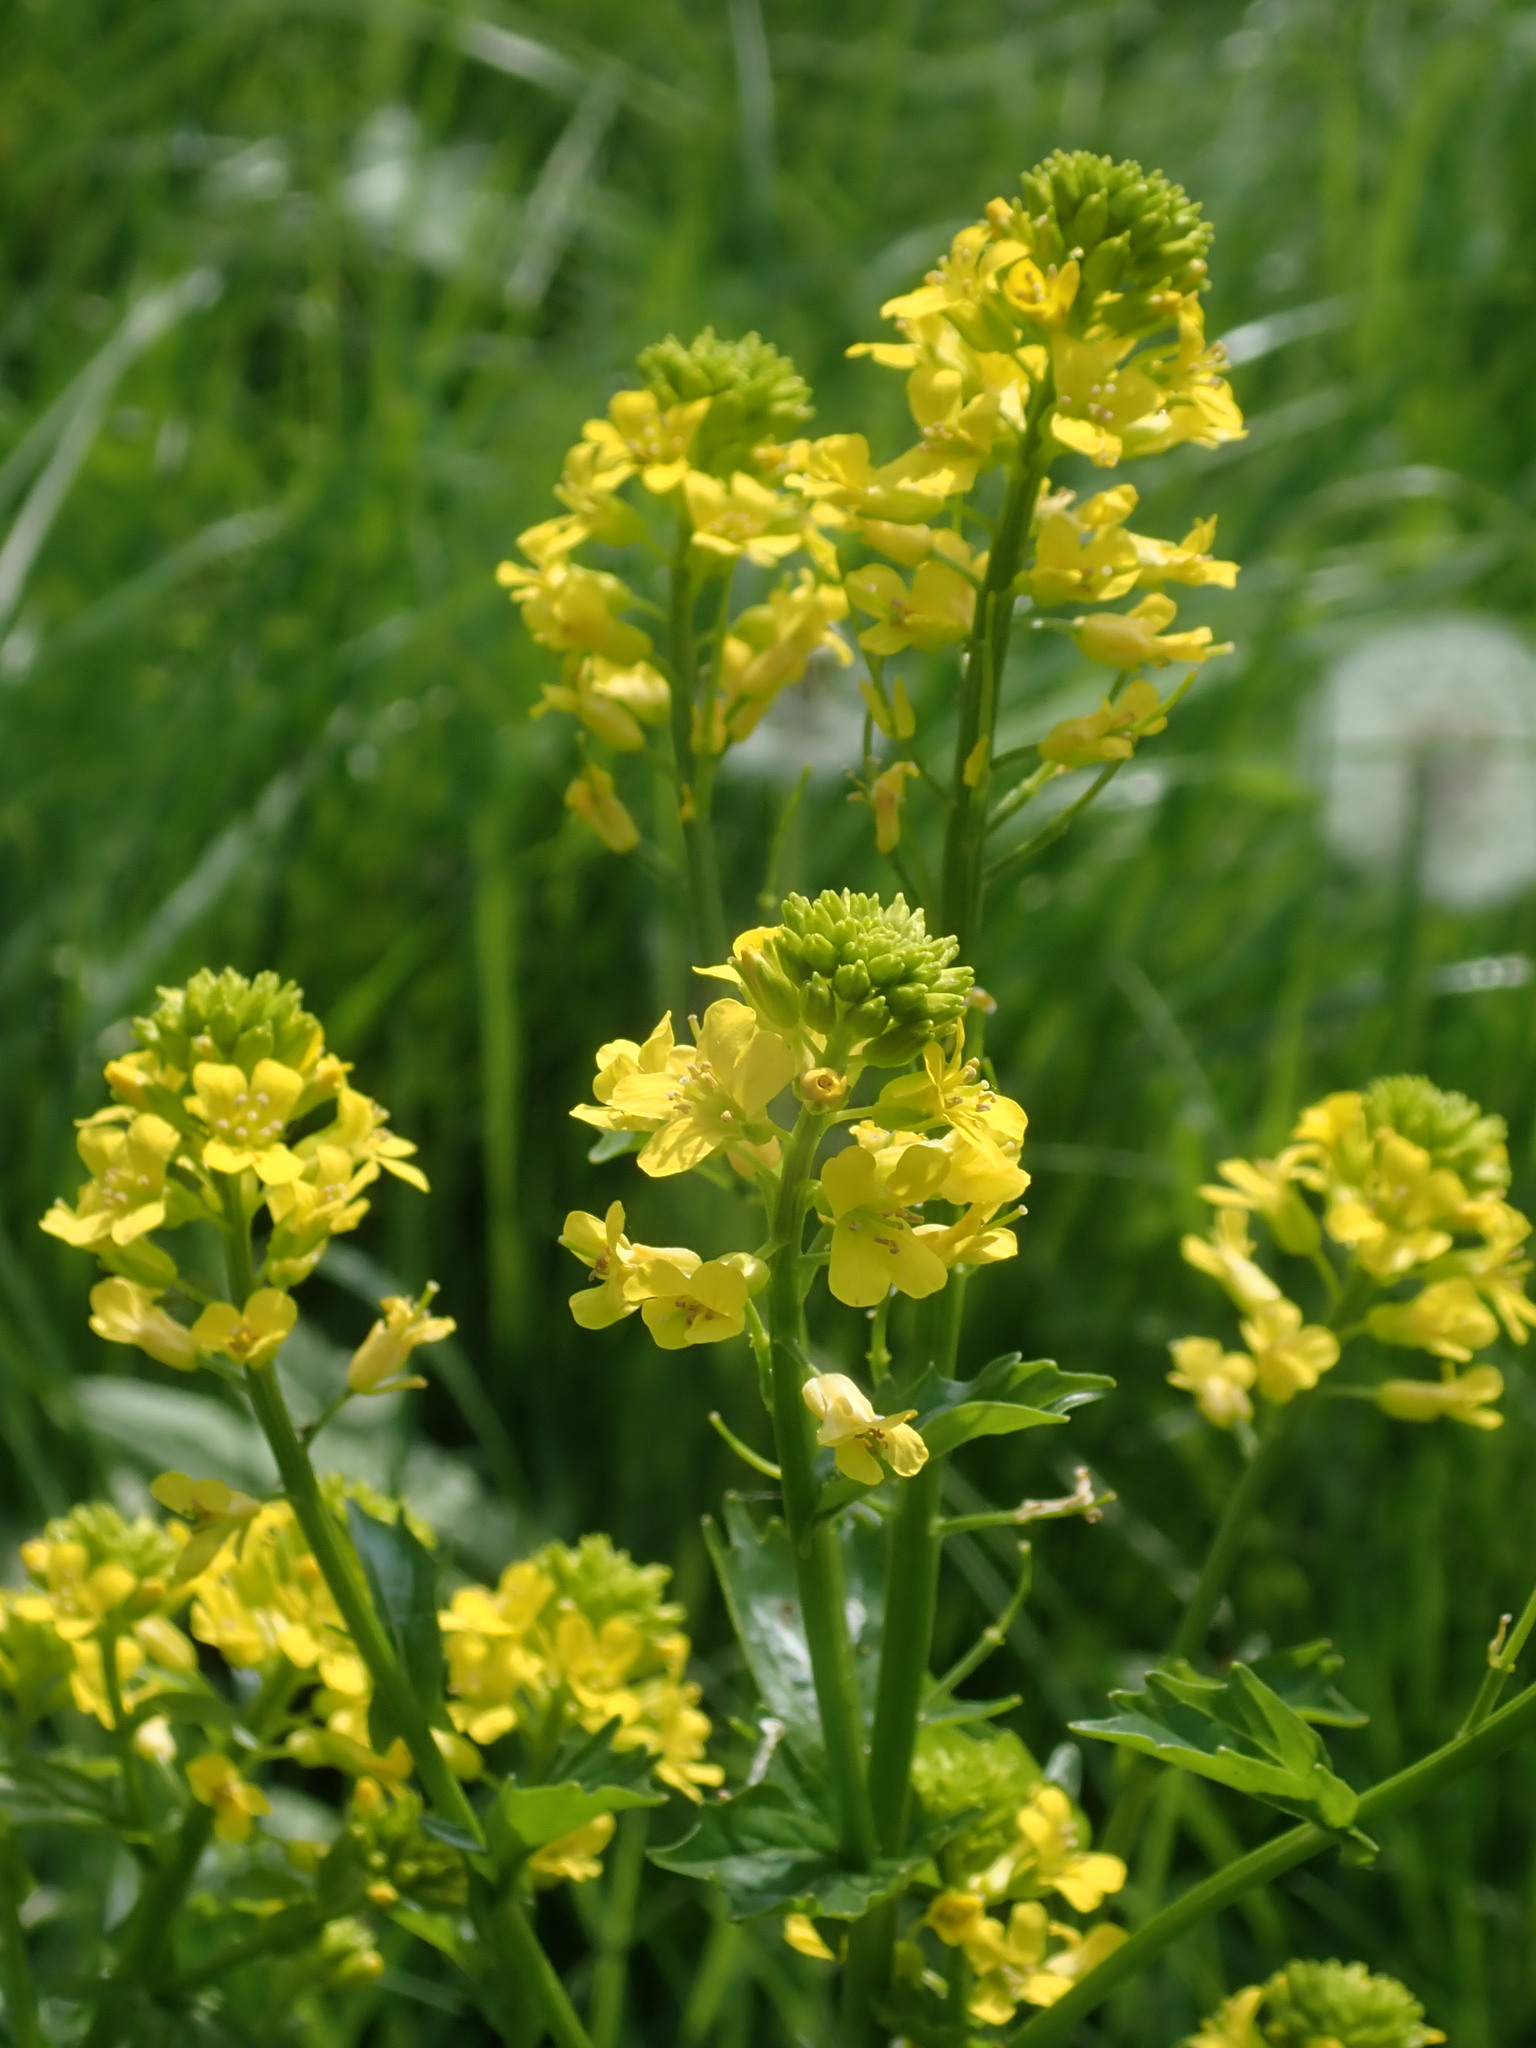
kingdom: Plantae
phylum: Tracheophyta
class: Magnoliopsida
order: Brassicales
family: Brassicaceae
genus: Barbarea
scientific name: Barbarea vulgaris
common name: Cressy-greens
